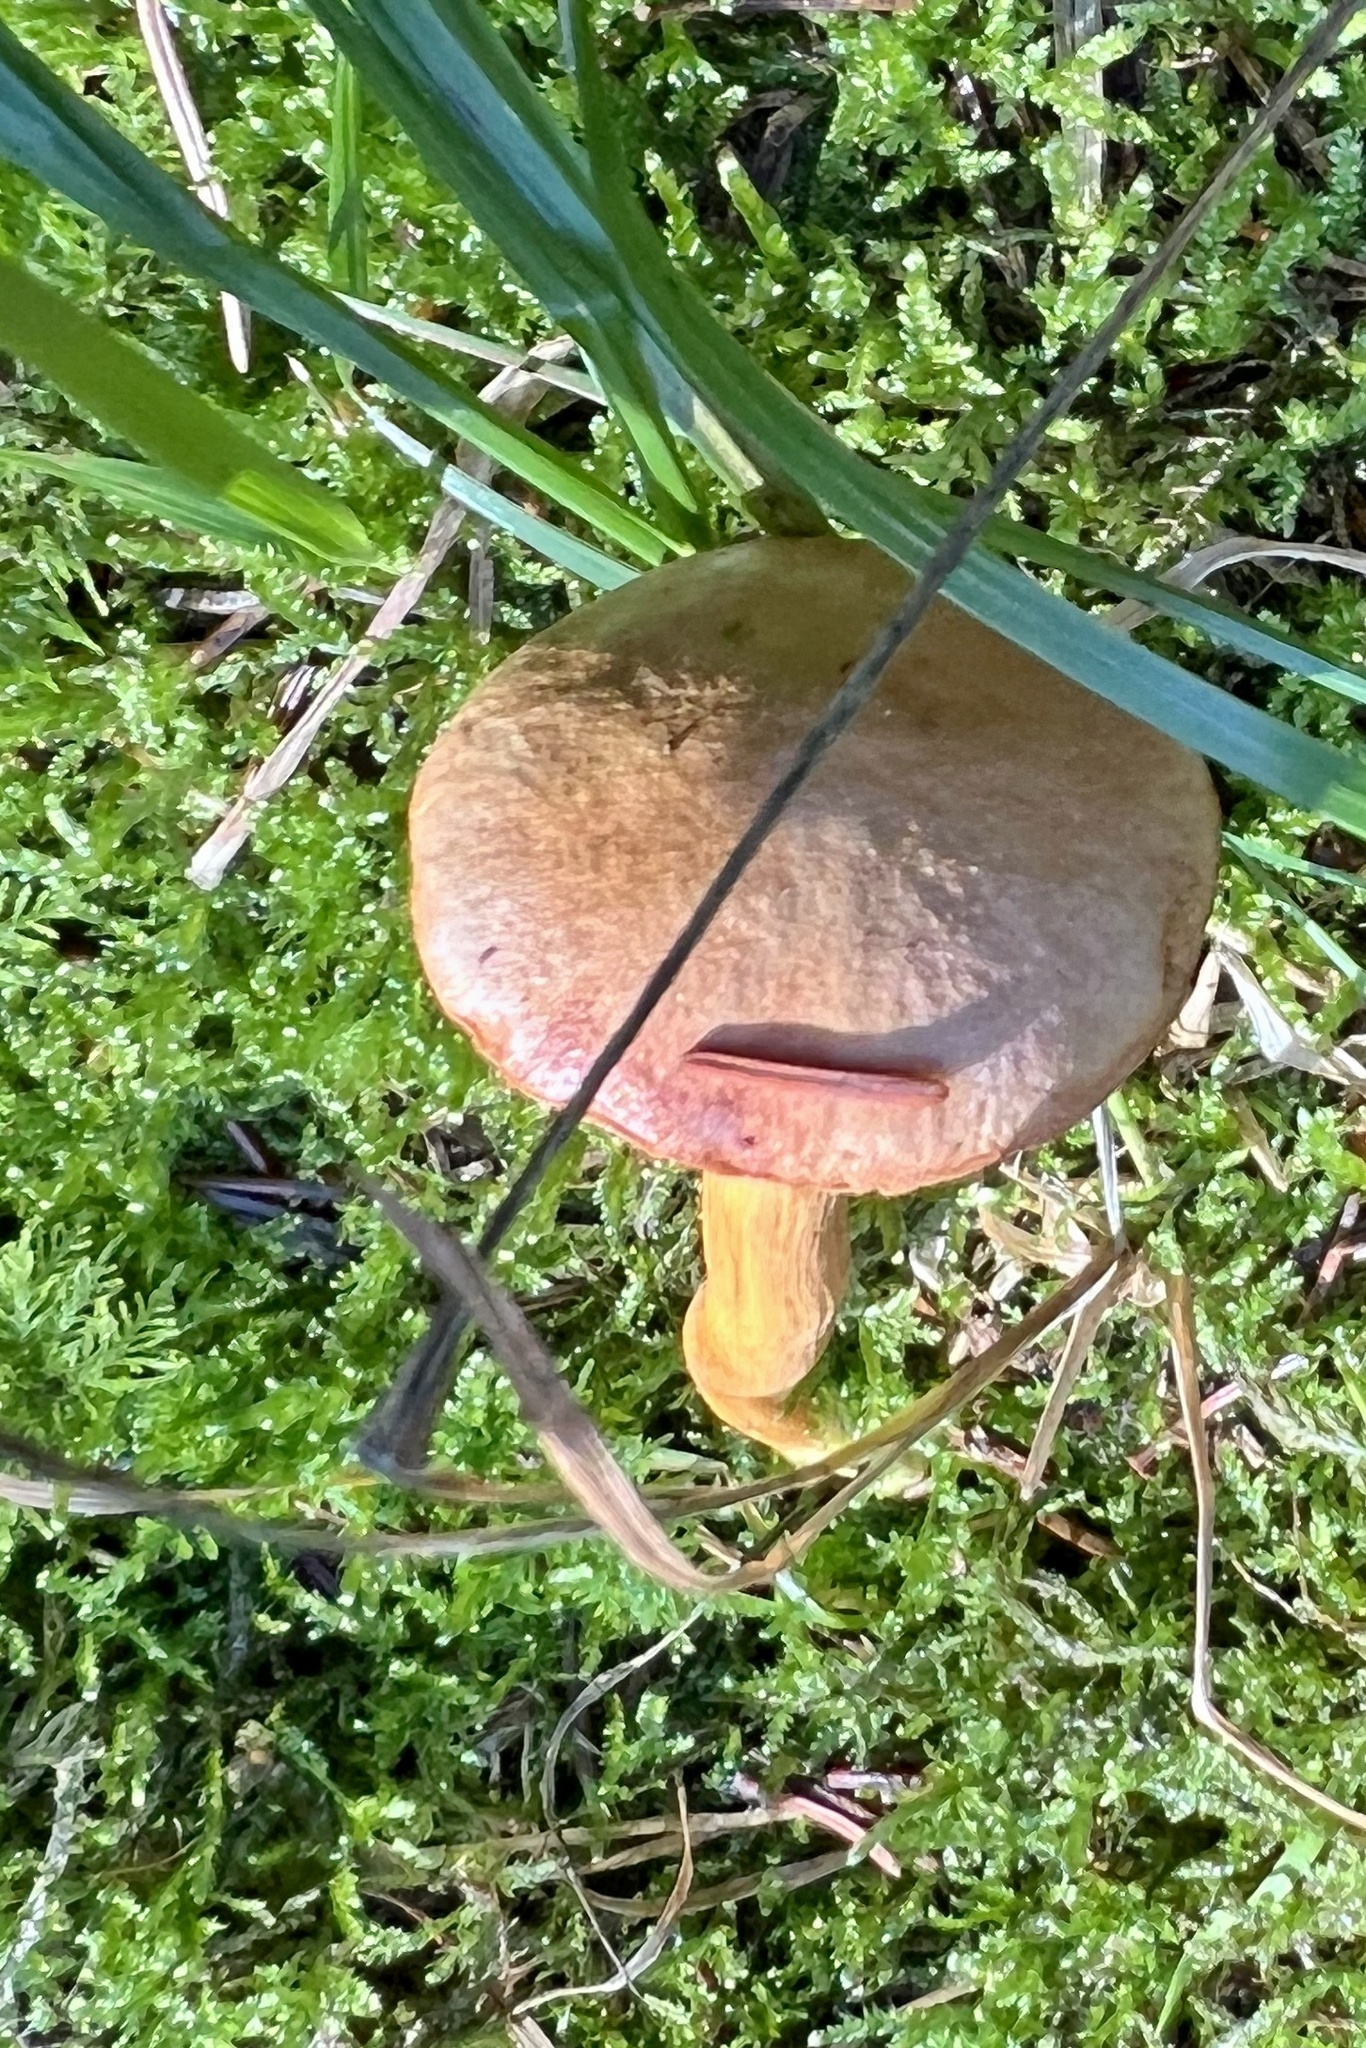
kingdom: Fungi
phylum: Basidiomycota
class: Agaricomycetes
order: Boletales
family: Boletaceae
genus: Chalciporus
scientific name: Chalciporus piperatus
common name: Peppery bolete
